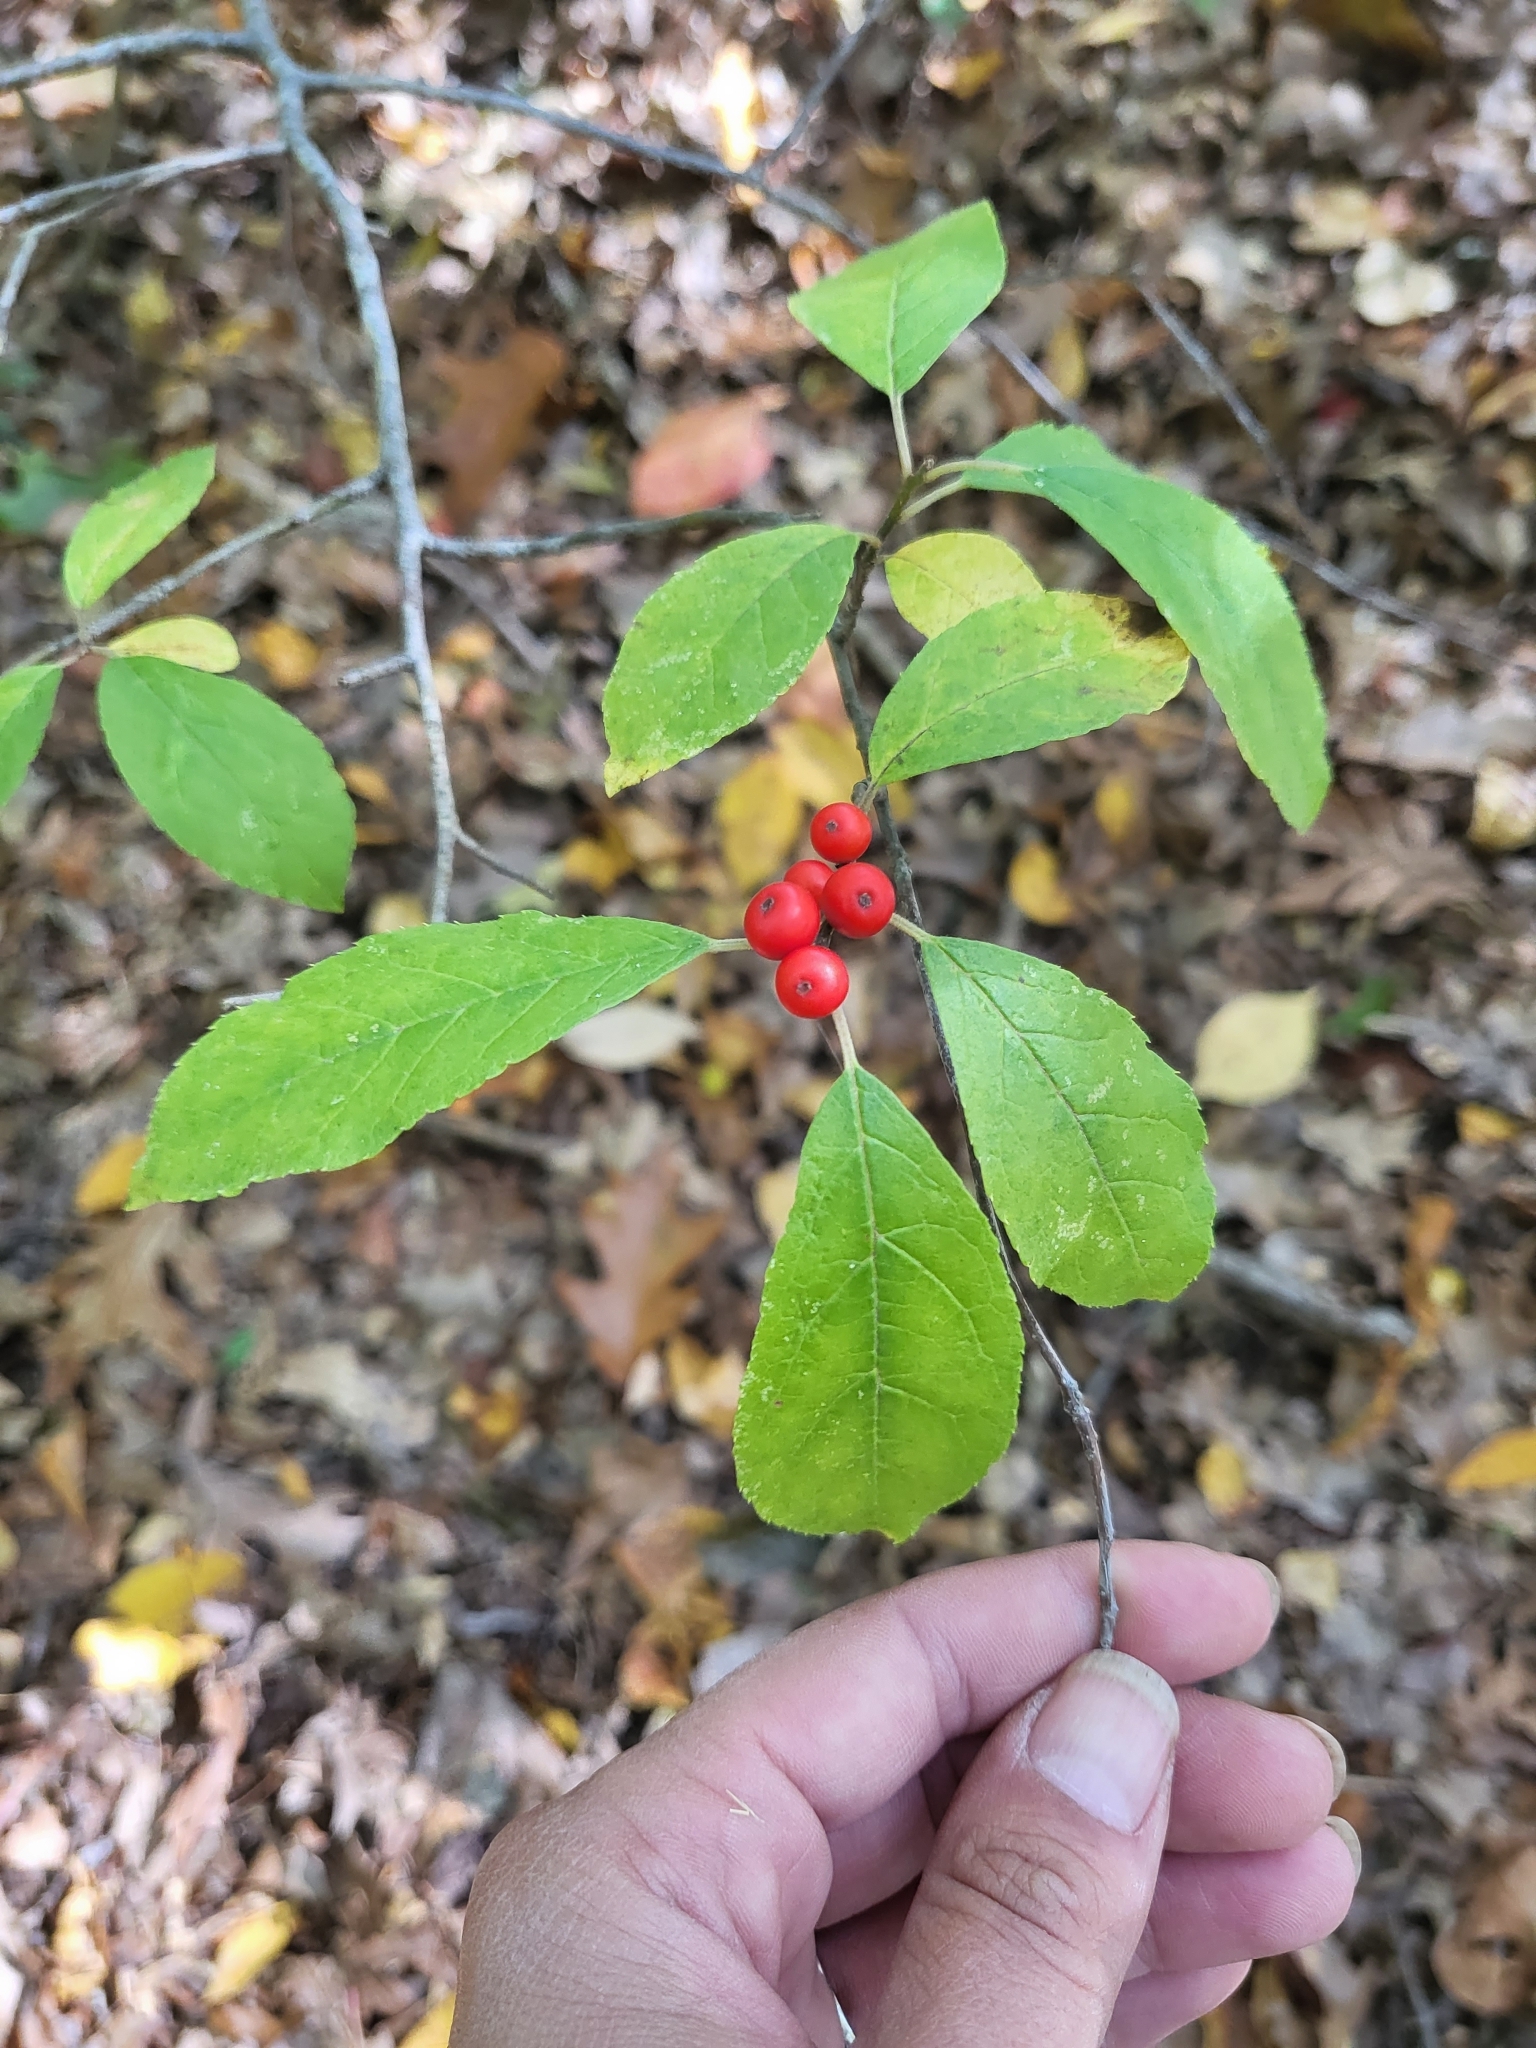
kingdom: Plantae
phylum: Tracheophyta
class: Magnoliopsida
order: Aquifoliales
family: Aquifoliaceae
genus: Ilex
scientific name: Ilex verticillata
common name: Virginia winterberry
